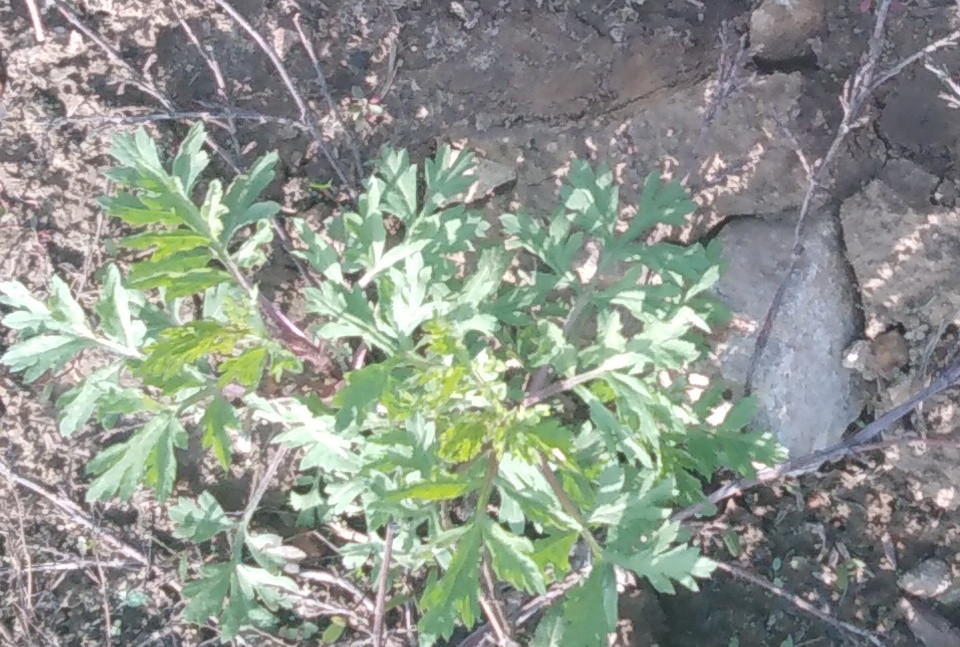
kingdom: Plantae
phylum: Tracheophyta
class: Magnoliopsida
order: Asterales
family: Asteraceae
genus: Artemisia
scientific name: Artemisia vulgaris
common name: Mugwort
